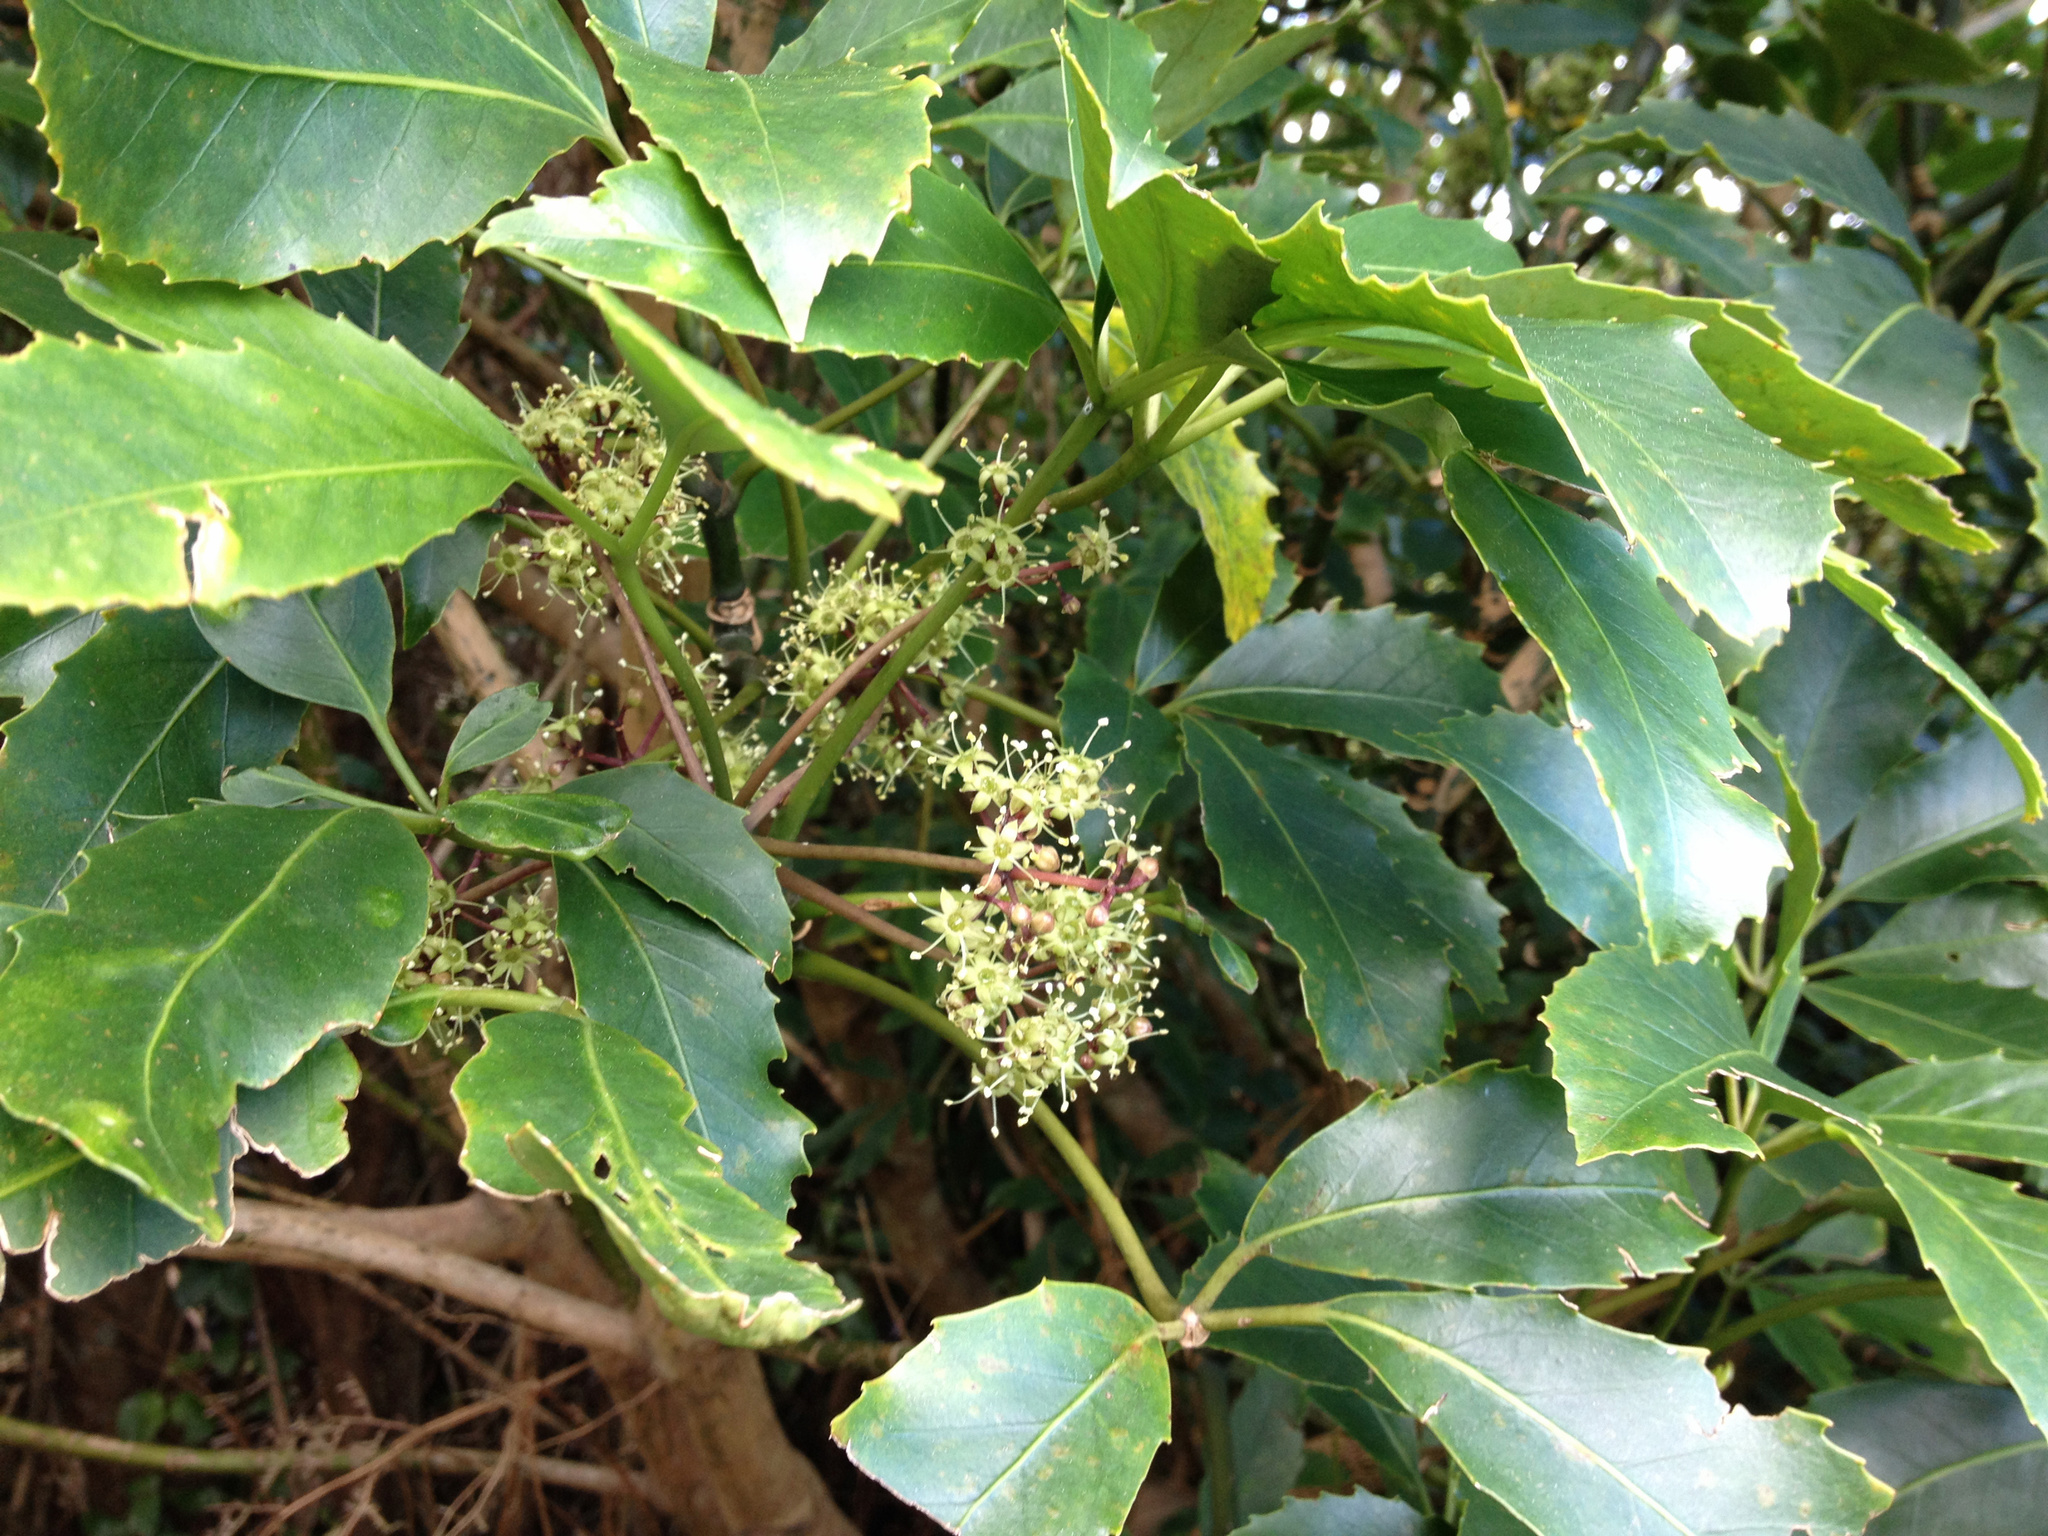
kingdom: Plantae
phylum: Tracheophyta
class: Magnoliopsida
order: Apiales
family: Araliaceae
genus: Neopanax
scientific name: Neopanax arboreus
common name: Five-fingers
